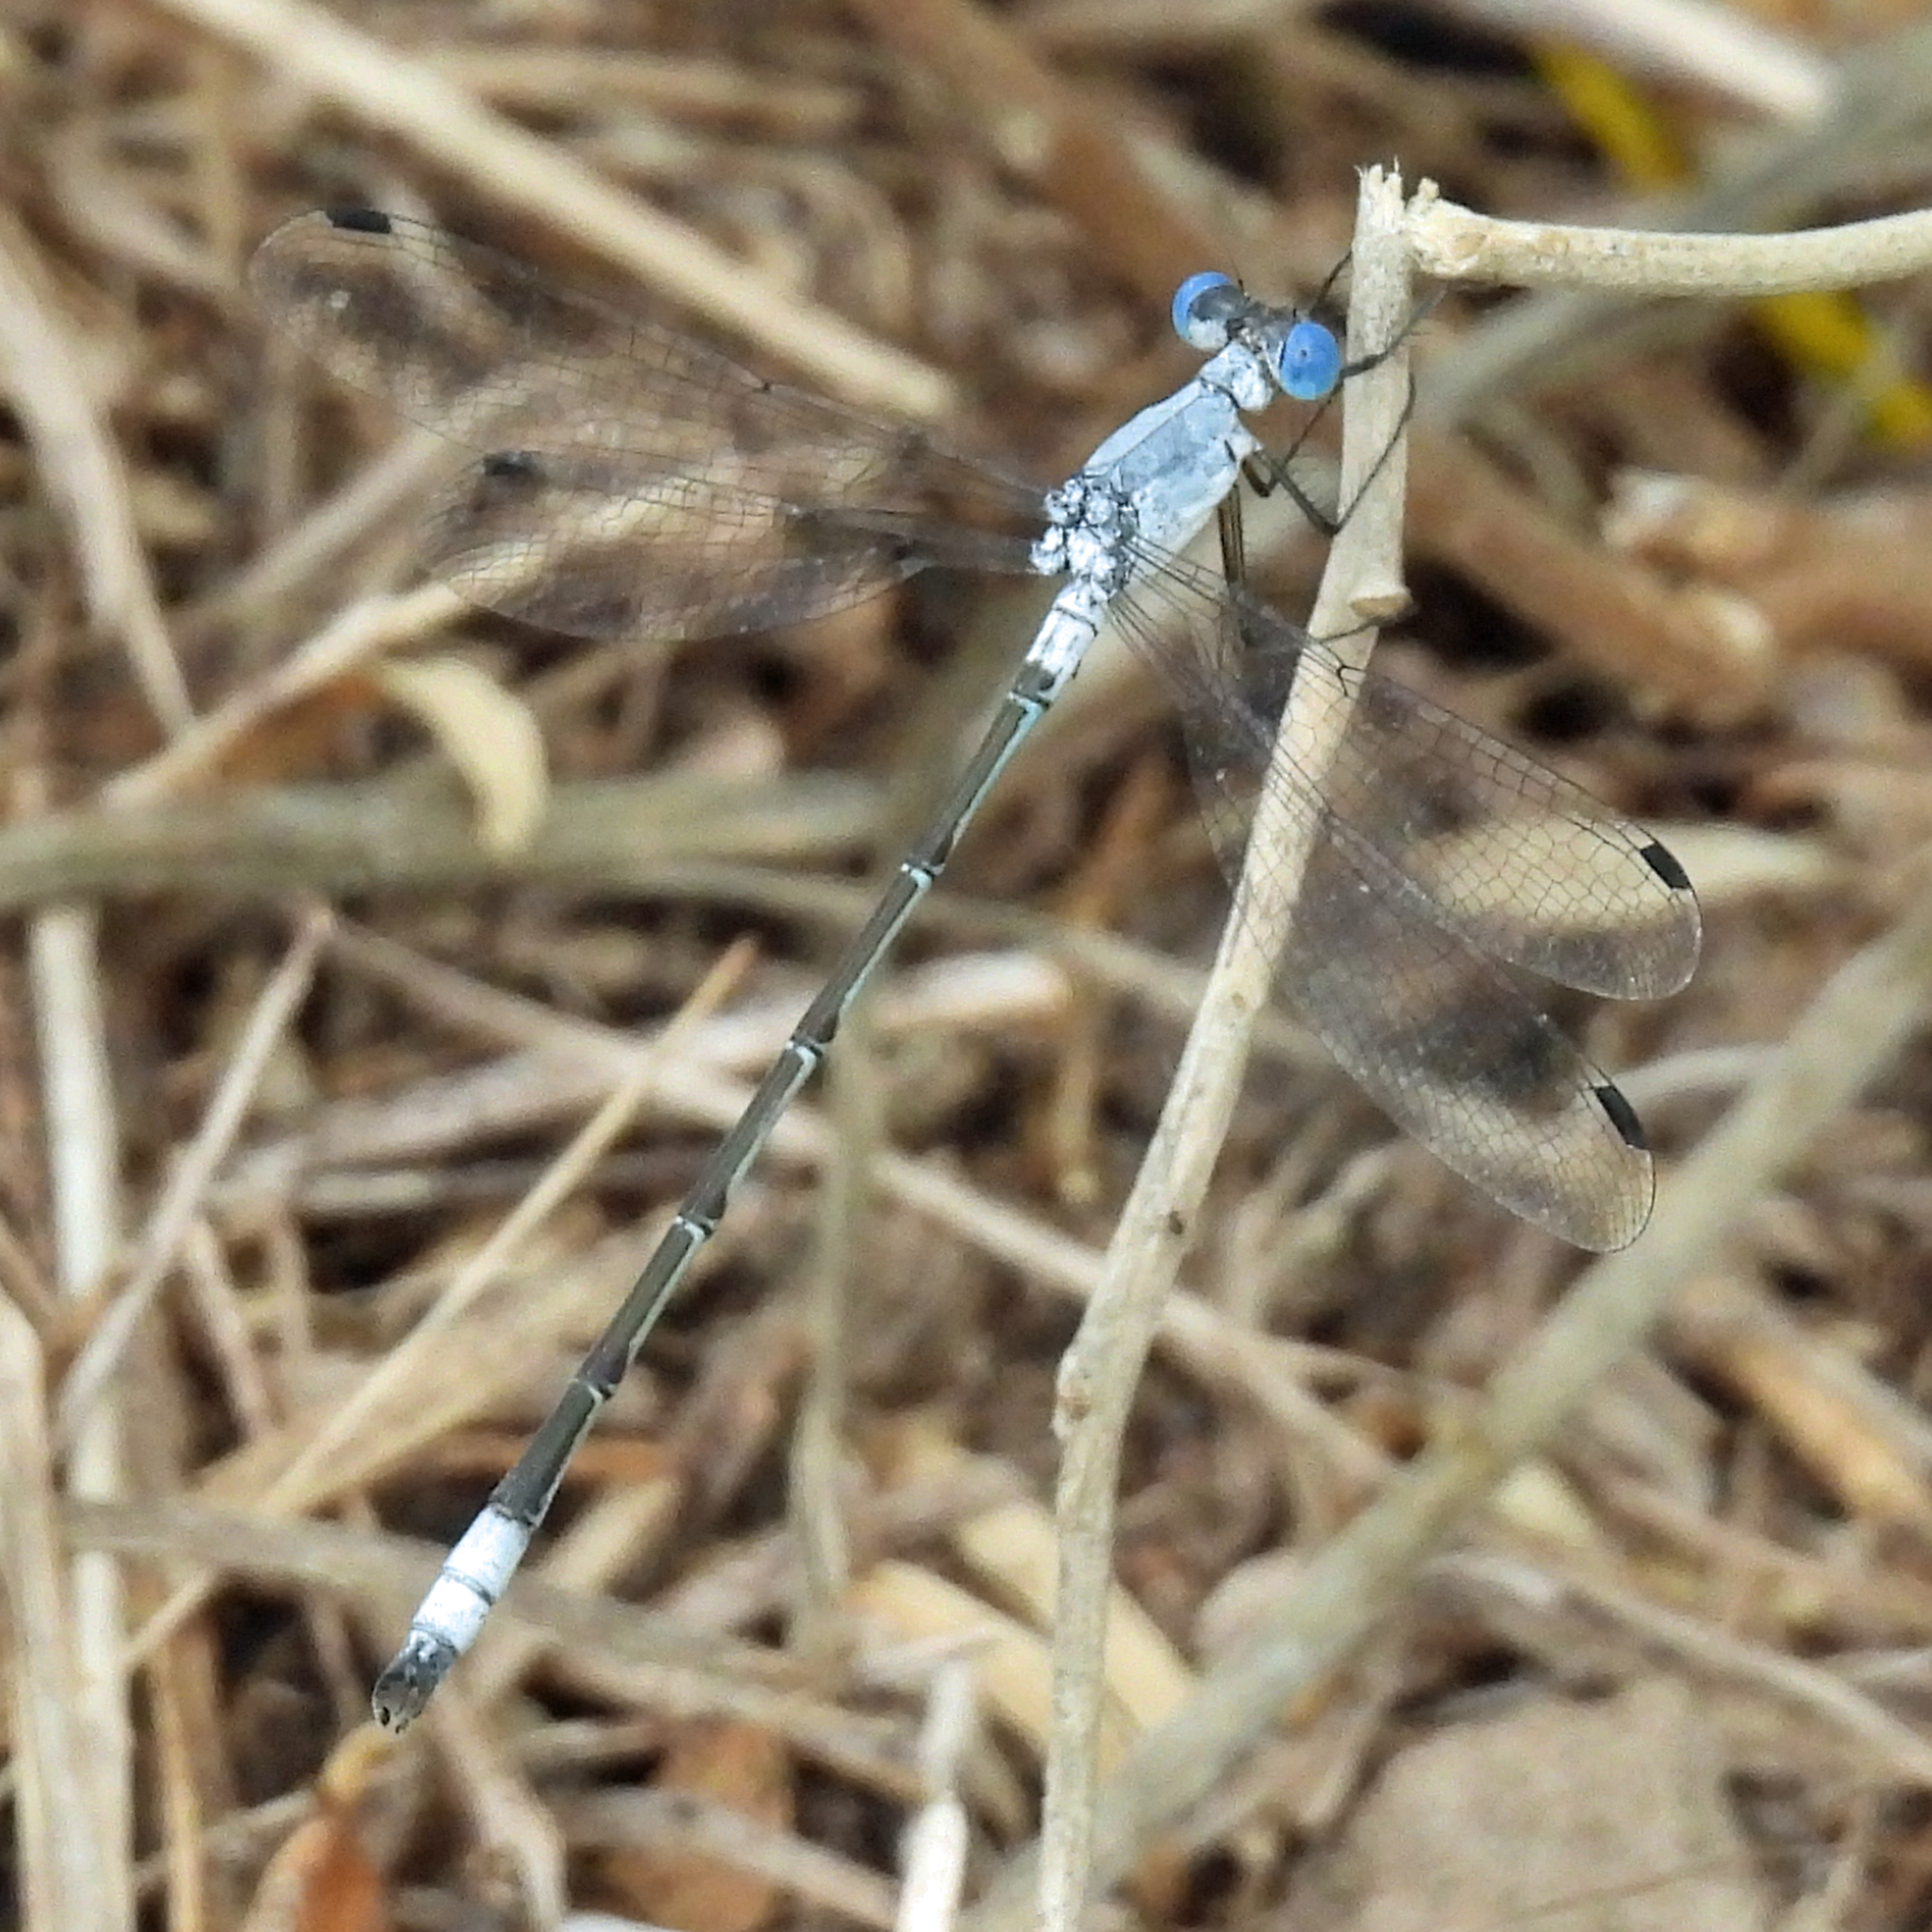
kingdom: Animalia
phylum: Arthropoda
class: Insecta
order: Odonata
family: Lestidae
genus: Lestes
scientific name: Lestes sigma
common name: Chalky spreadwing
